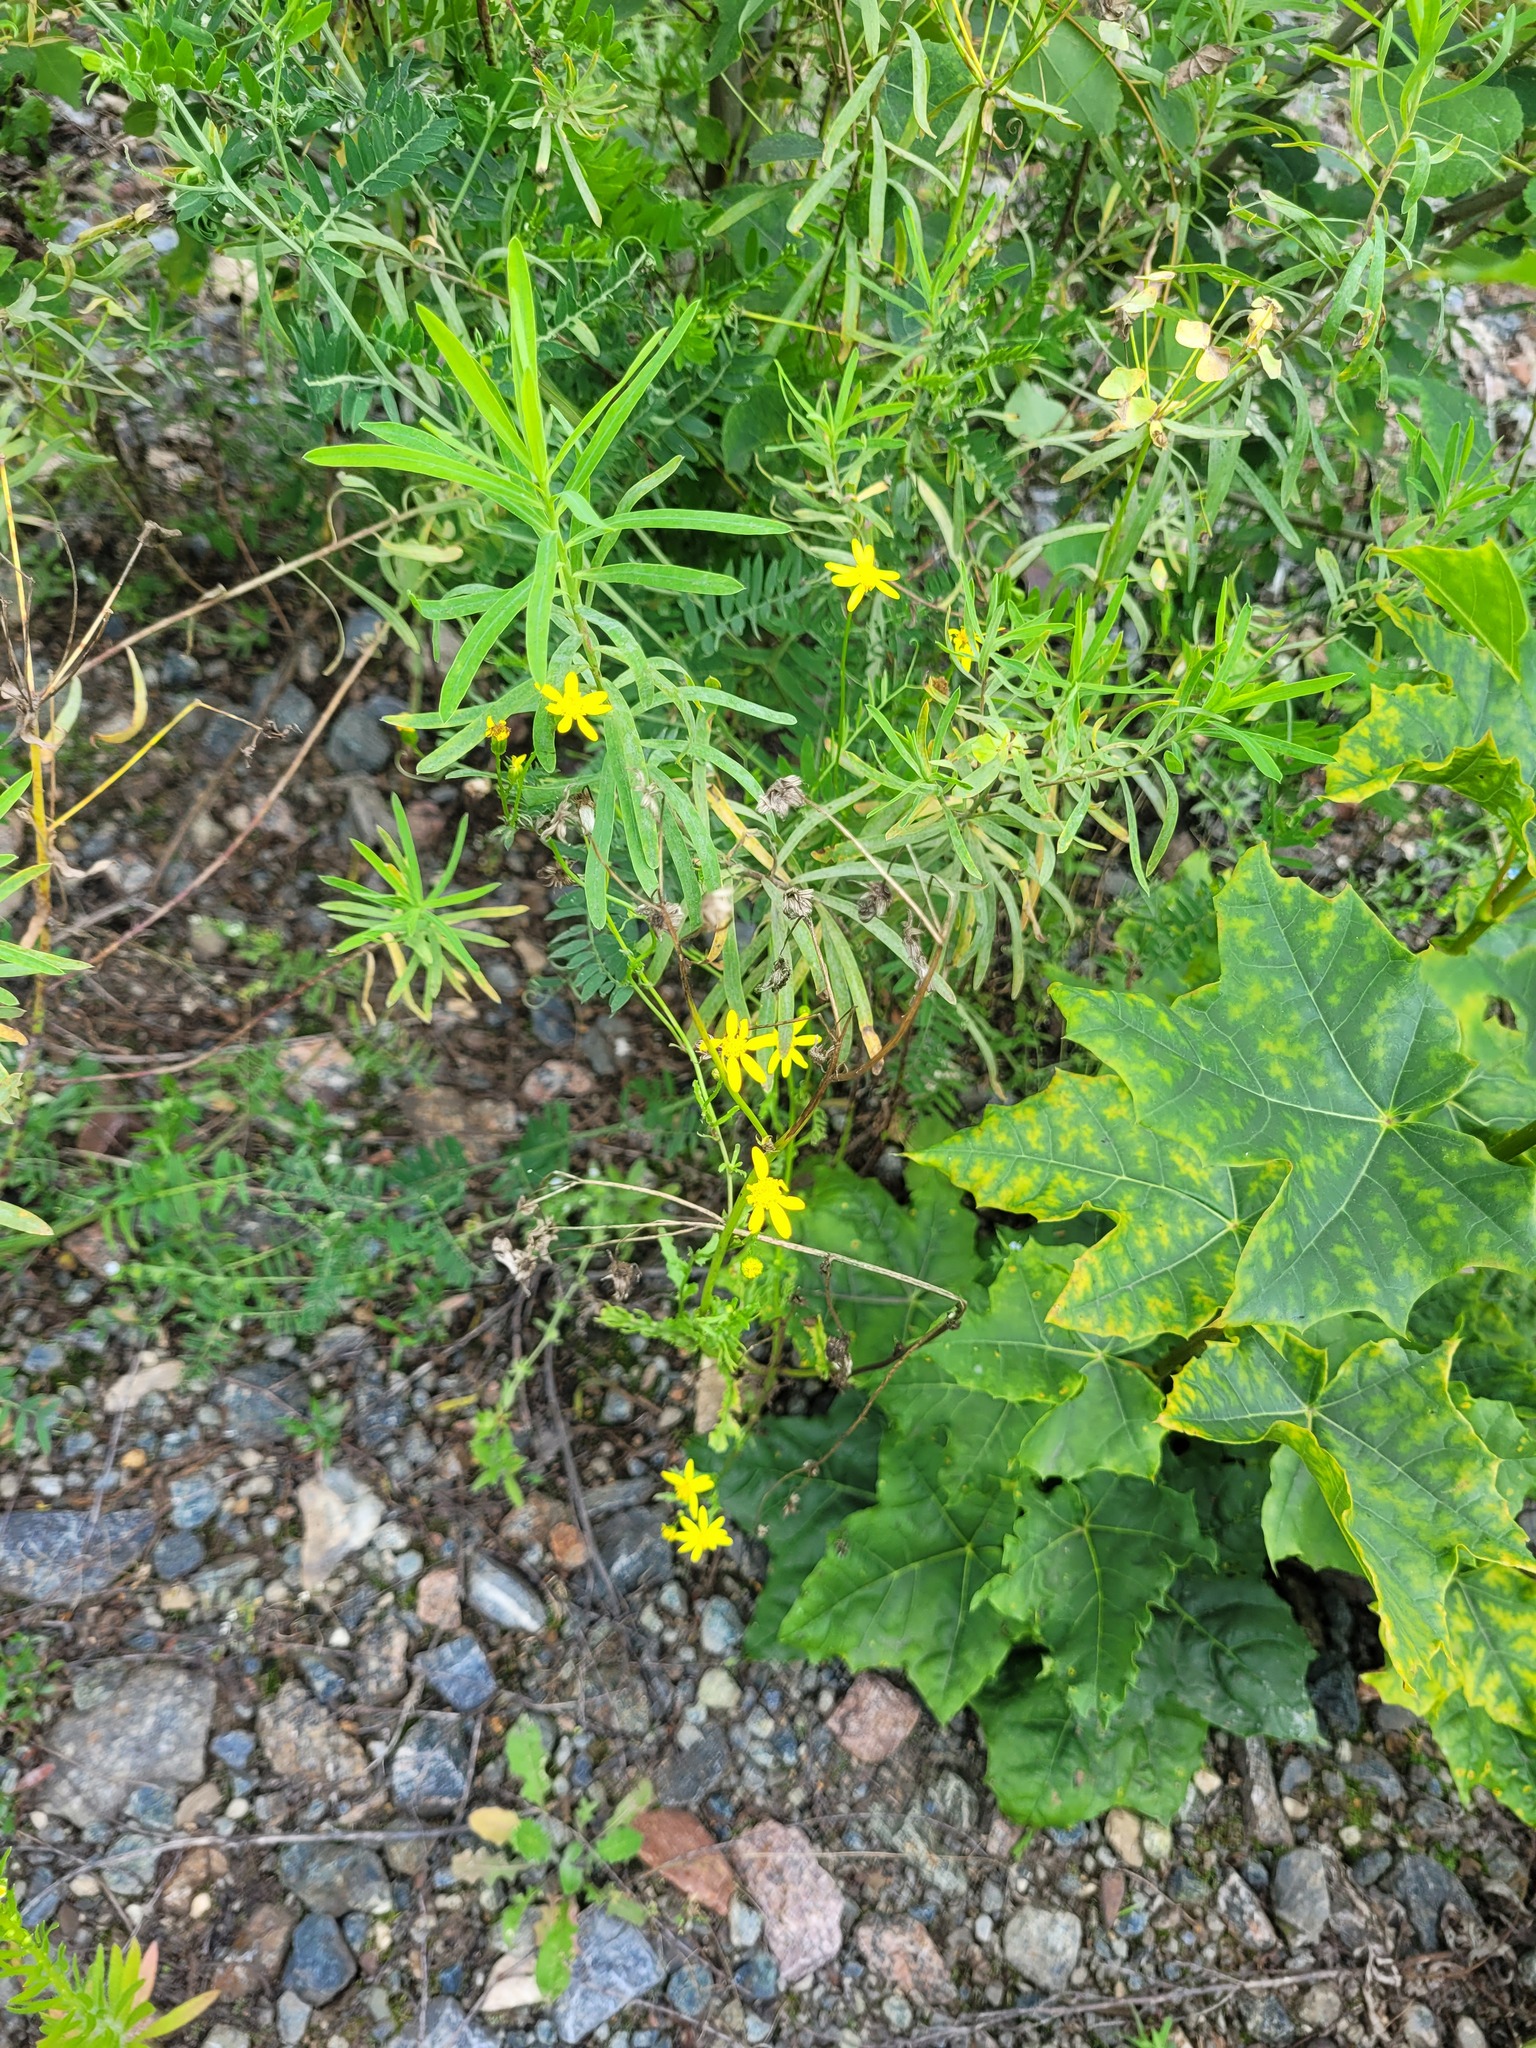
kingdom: Plantae
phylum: Tracheophyta
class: Magnoliopsida
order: Asterales
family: Asteraceae
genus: Senecio
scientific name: Senecio vernalis
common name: Eastern groundsel
